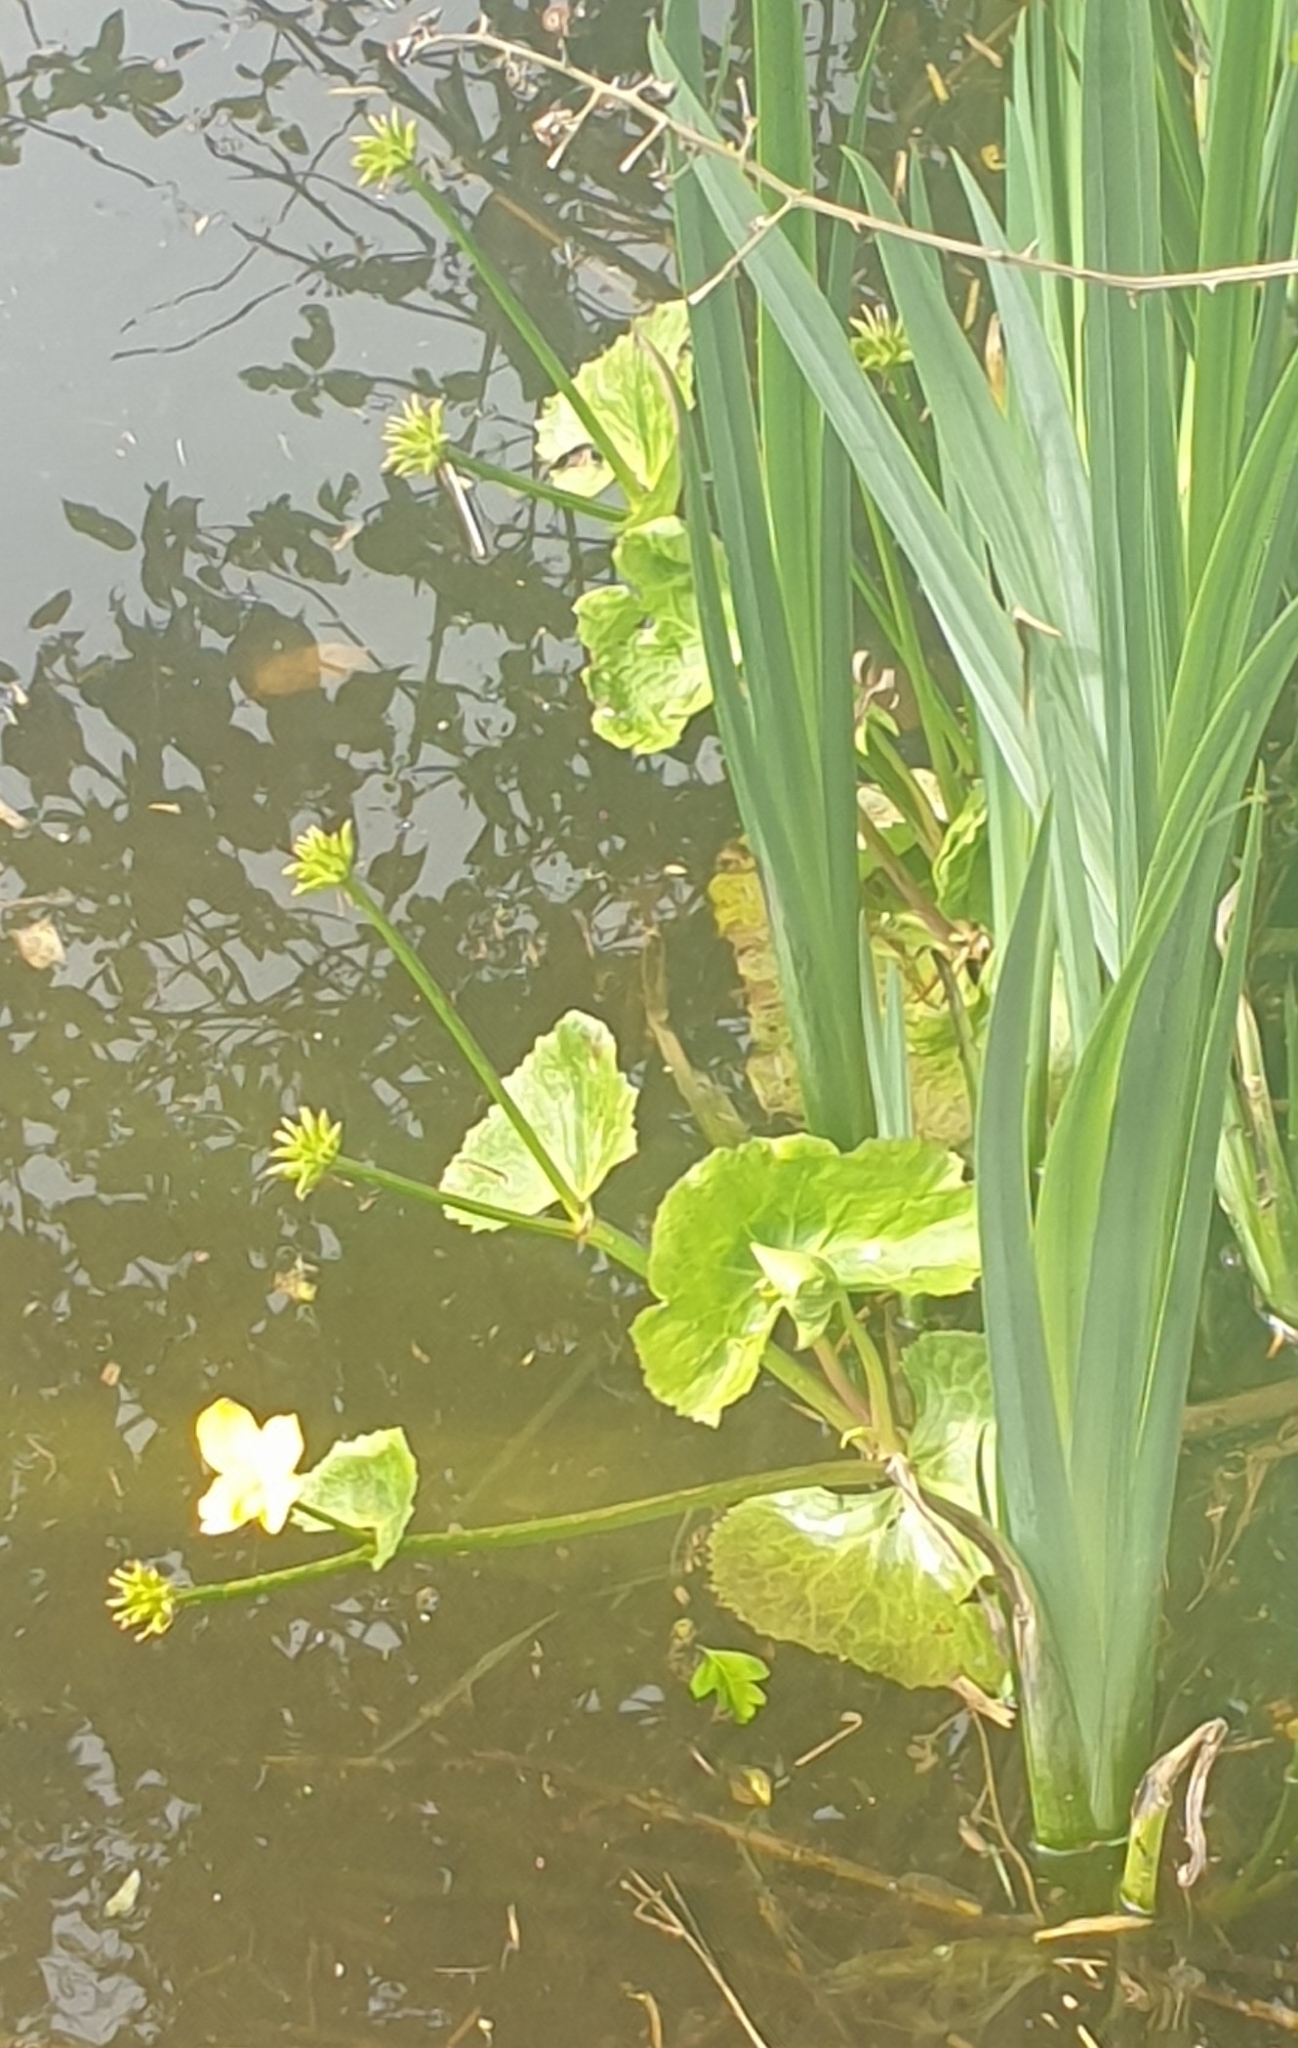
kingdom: Plantae
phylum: Tracheophyta
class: Magnoliopsida
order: Ranunculales
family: Ranunculaceae
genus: Caltha
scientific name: Caltha palustris
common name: Marsh marigold
